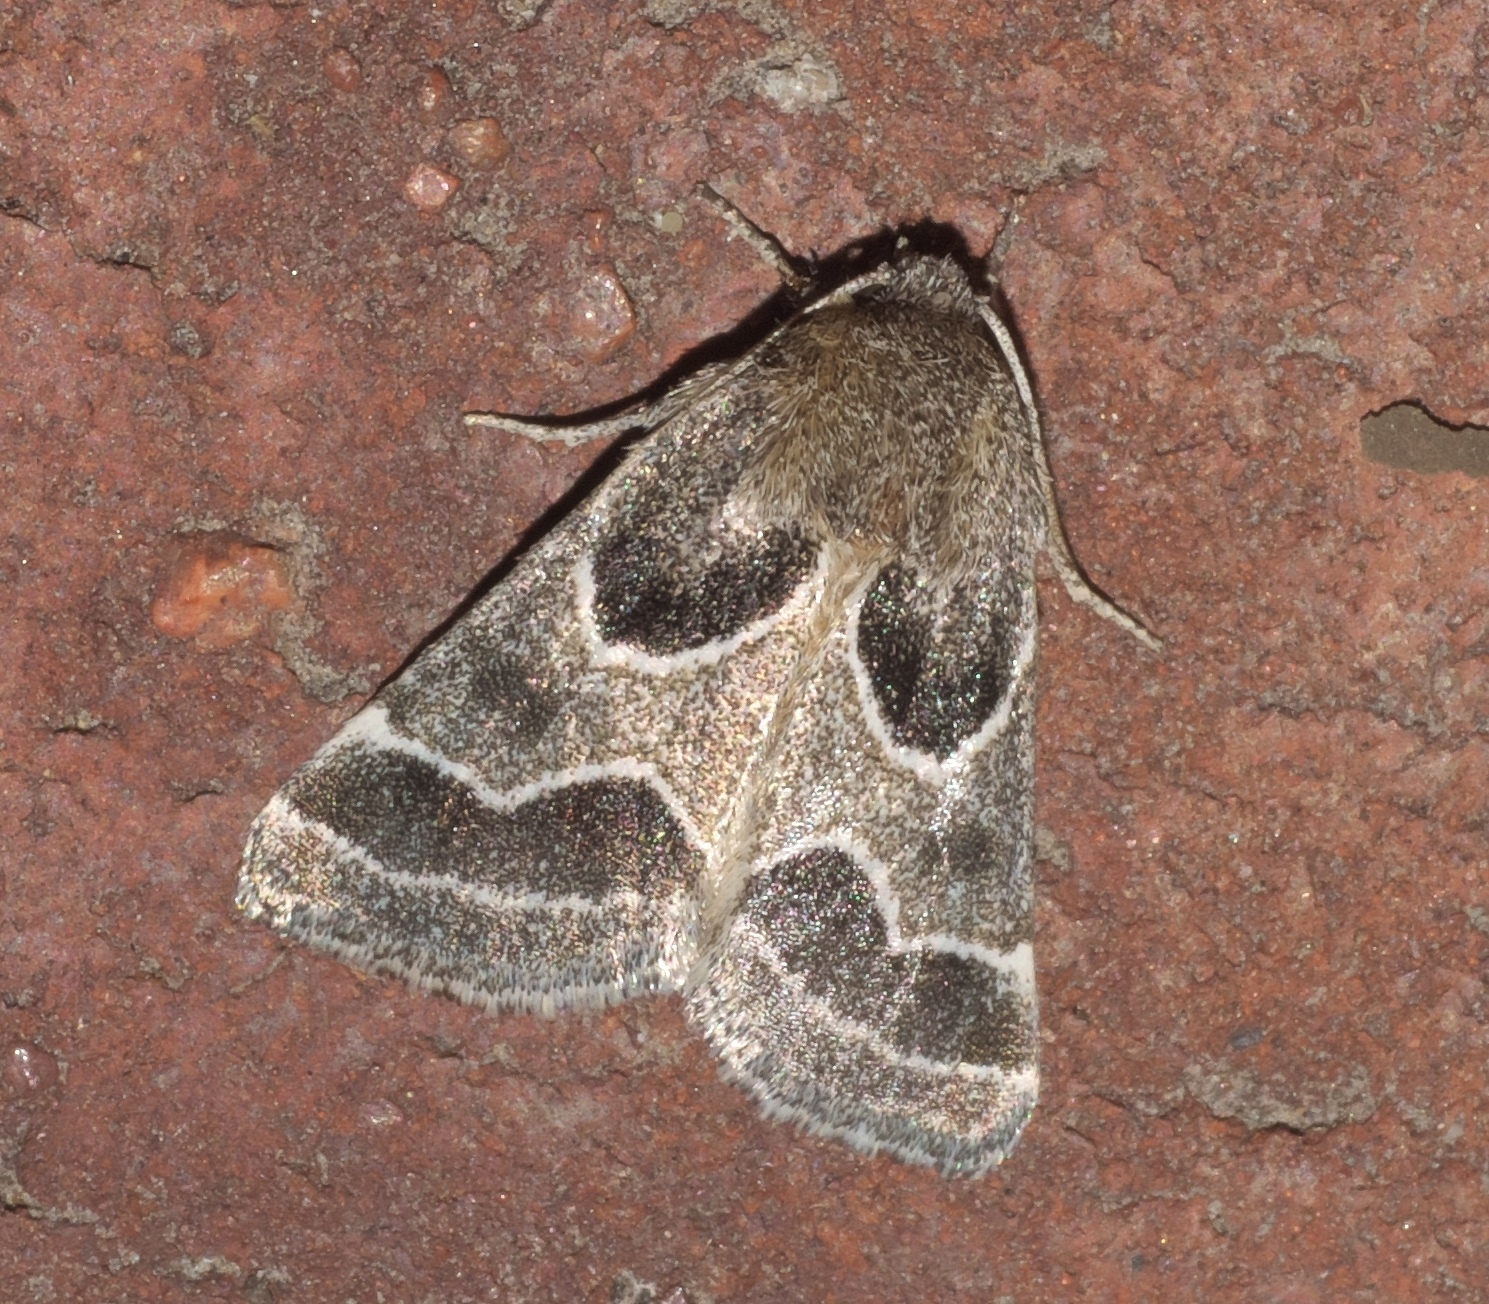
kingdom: Animalia
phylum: Arthropoda
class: Insecta
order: Lepidoptera
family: Noctuidae
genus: Schinia
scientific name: Schinia rivulosa
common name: Scarce meal-moth
